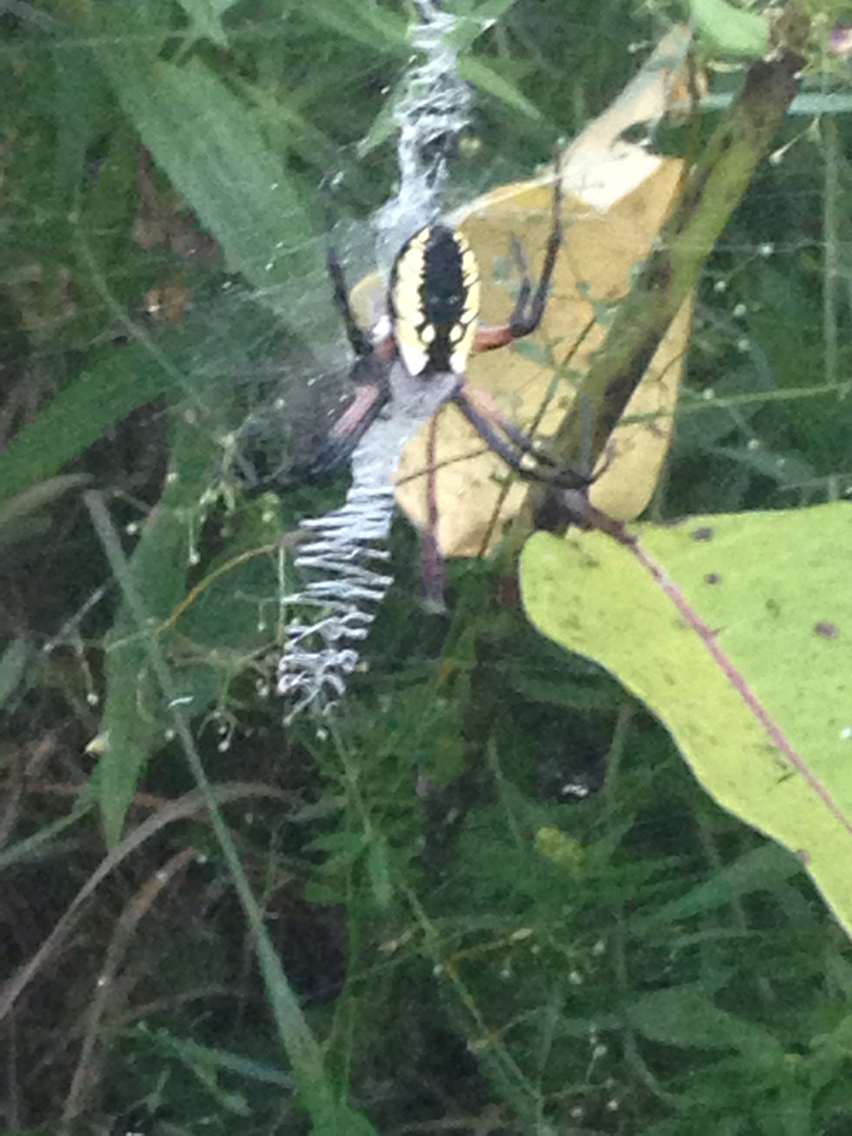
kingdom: Animalia
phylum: Arthropoda
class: Arachnida
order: Araneae
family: Araneidae
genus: Argiope
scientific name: Argiope aurantia
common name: Orb weavers
